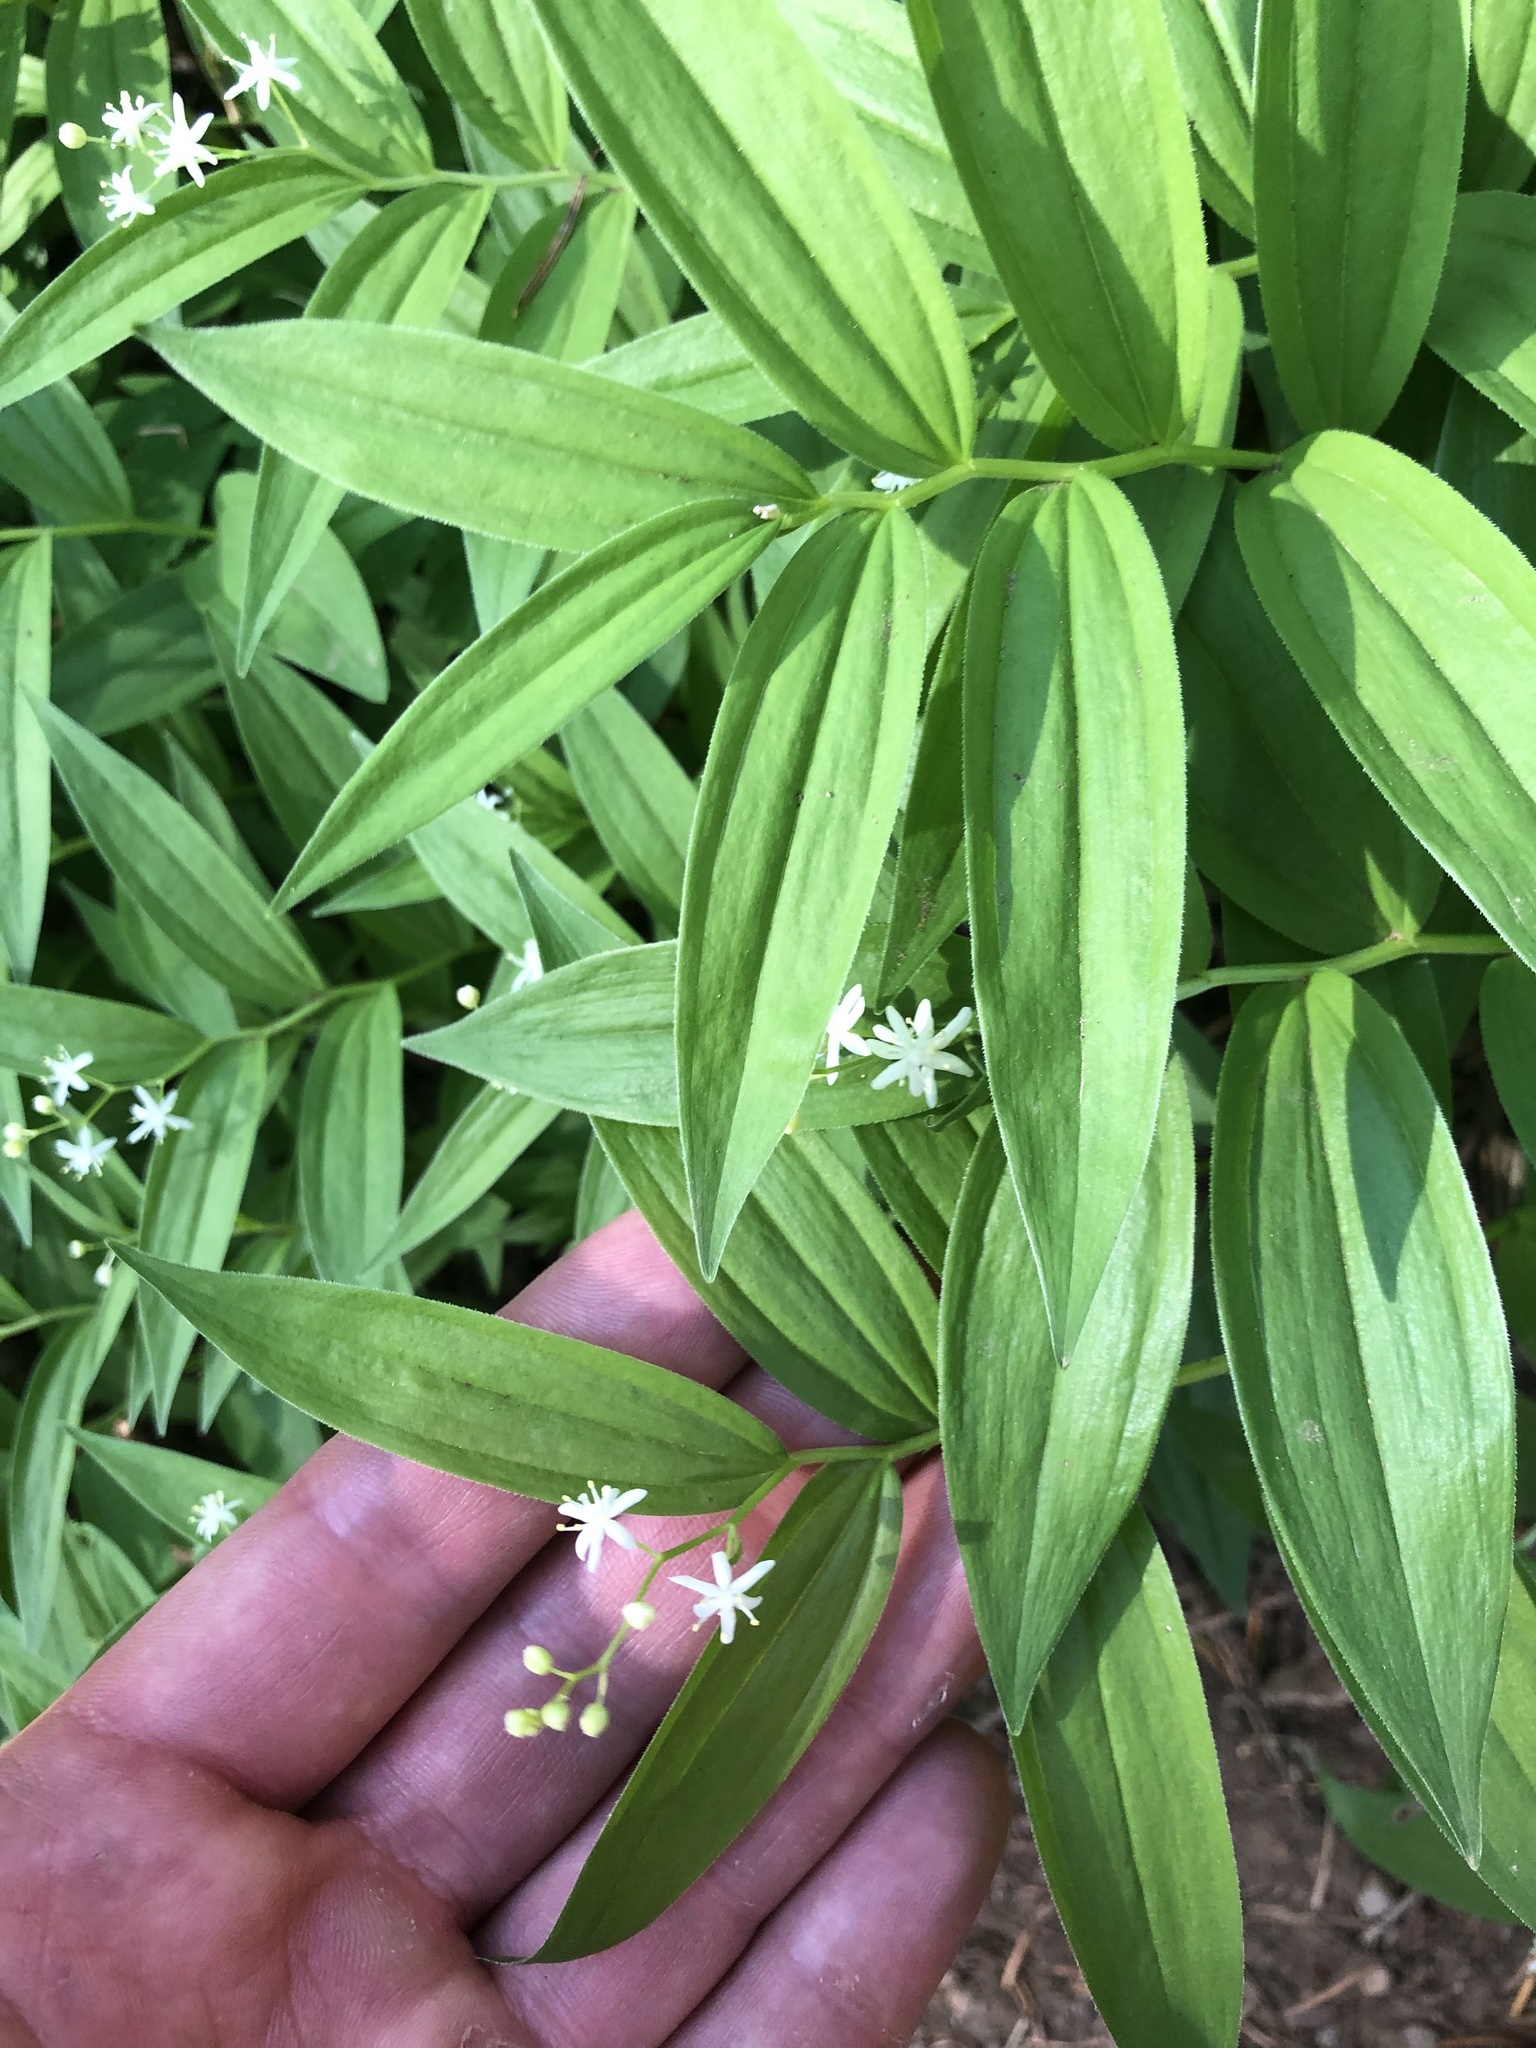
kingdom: Plantae
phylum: Tracheophyta
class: Liliopsida
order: Asparagales
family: Asparagaceae
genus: Maianthemum
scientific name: Maianthemum stellatum
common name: Little false solomon's seal
